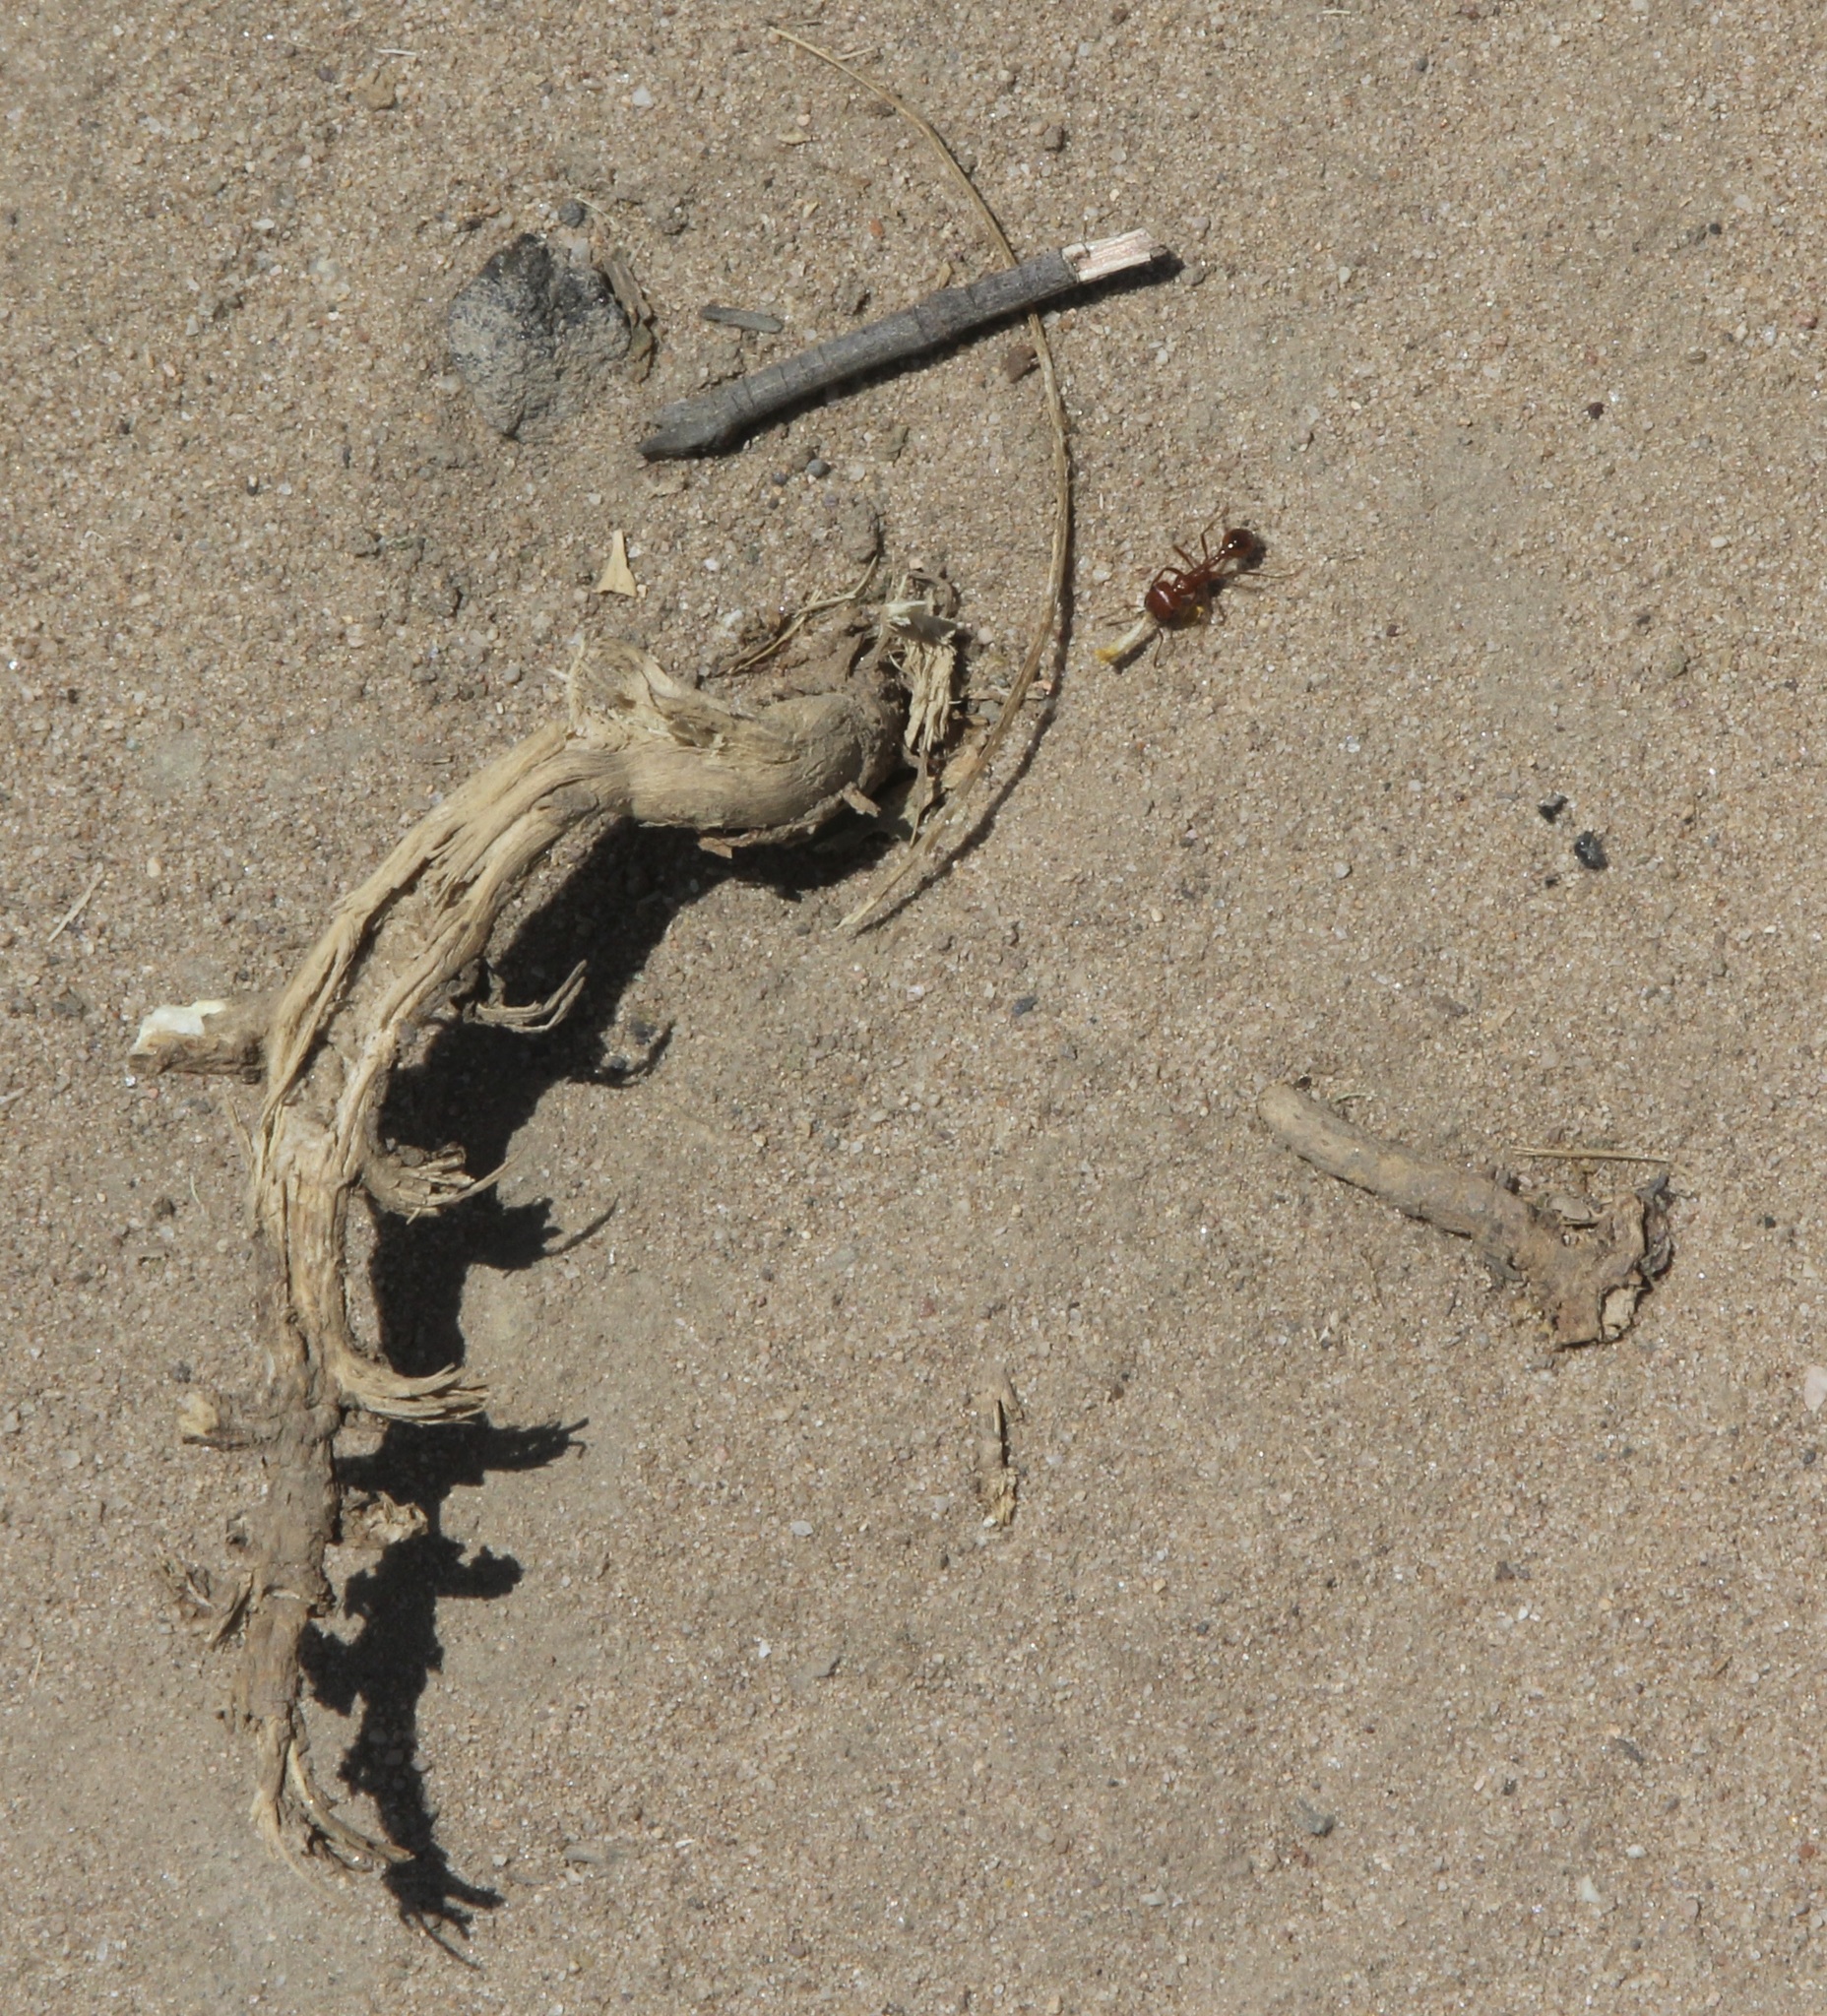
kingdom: Animalia
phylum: Arthropoda
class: Insecta
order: Hymenoptera
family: Formicidae
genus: Pogonomyrmex
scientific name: Pogonomyrmex californicus
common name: California harvester ant
